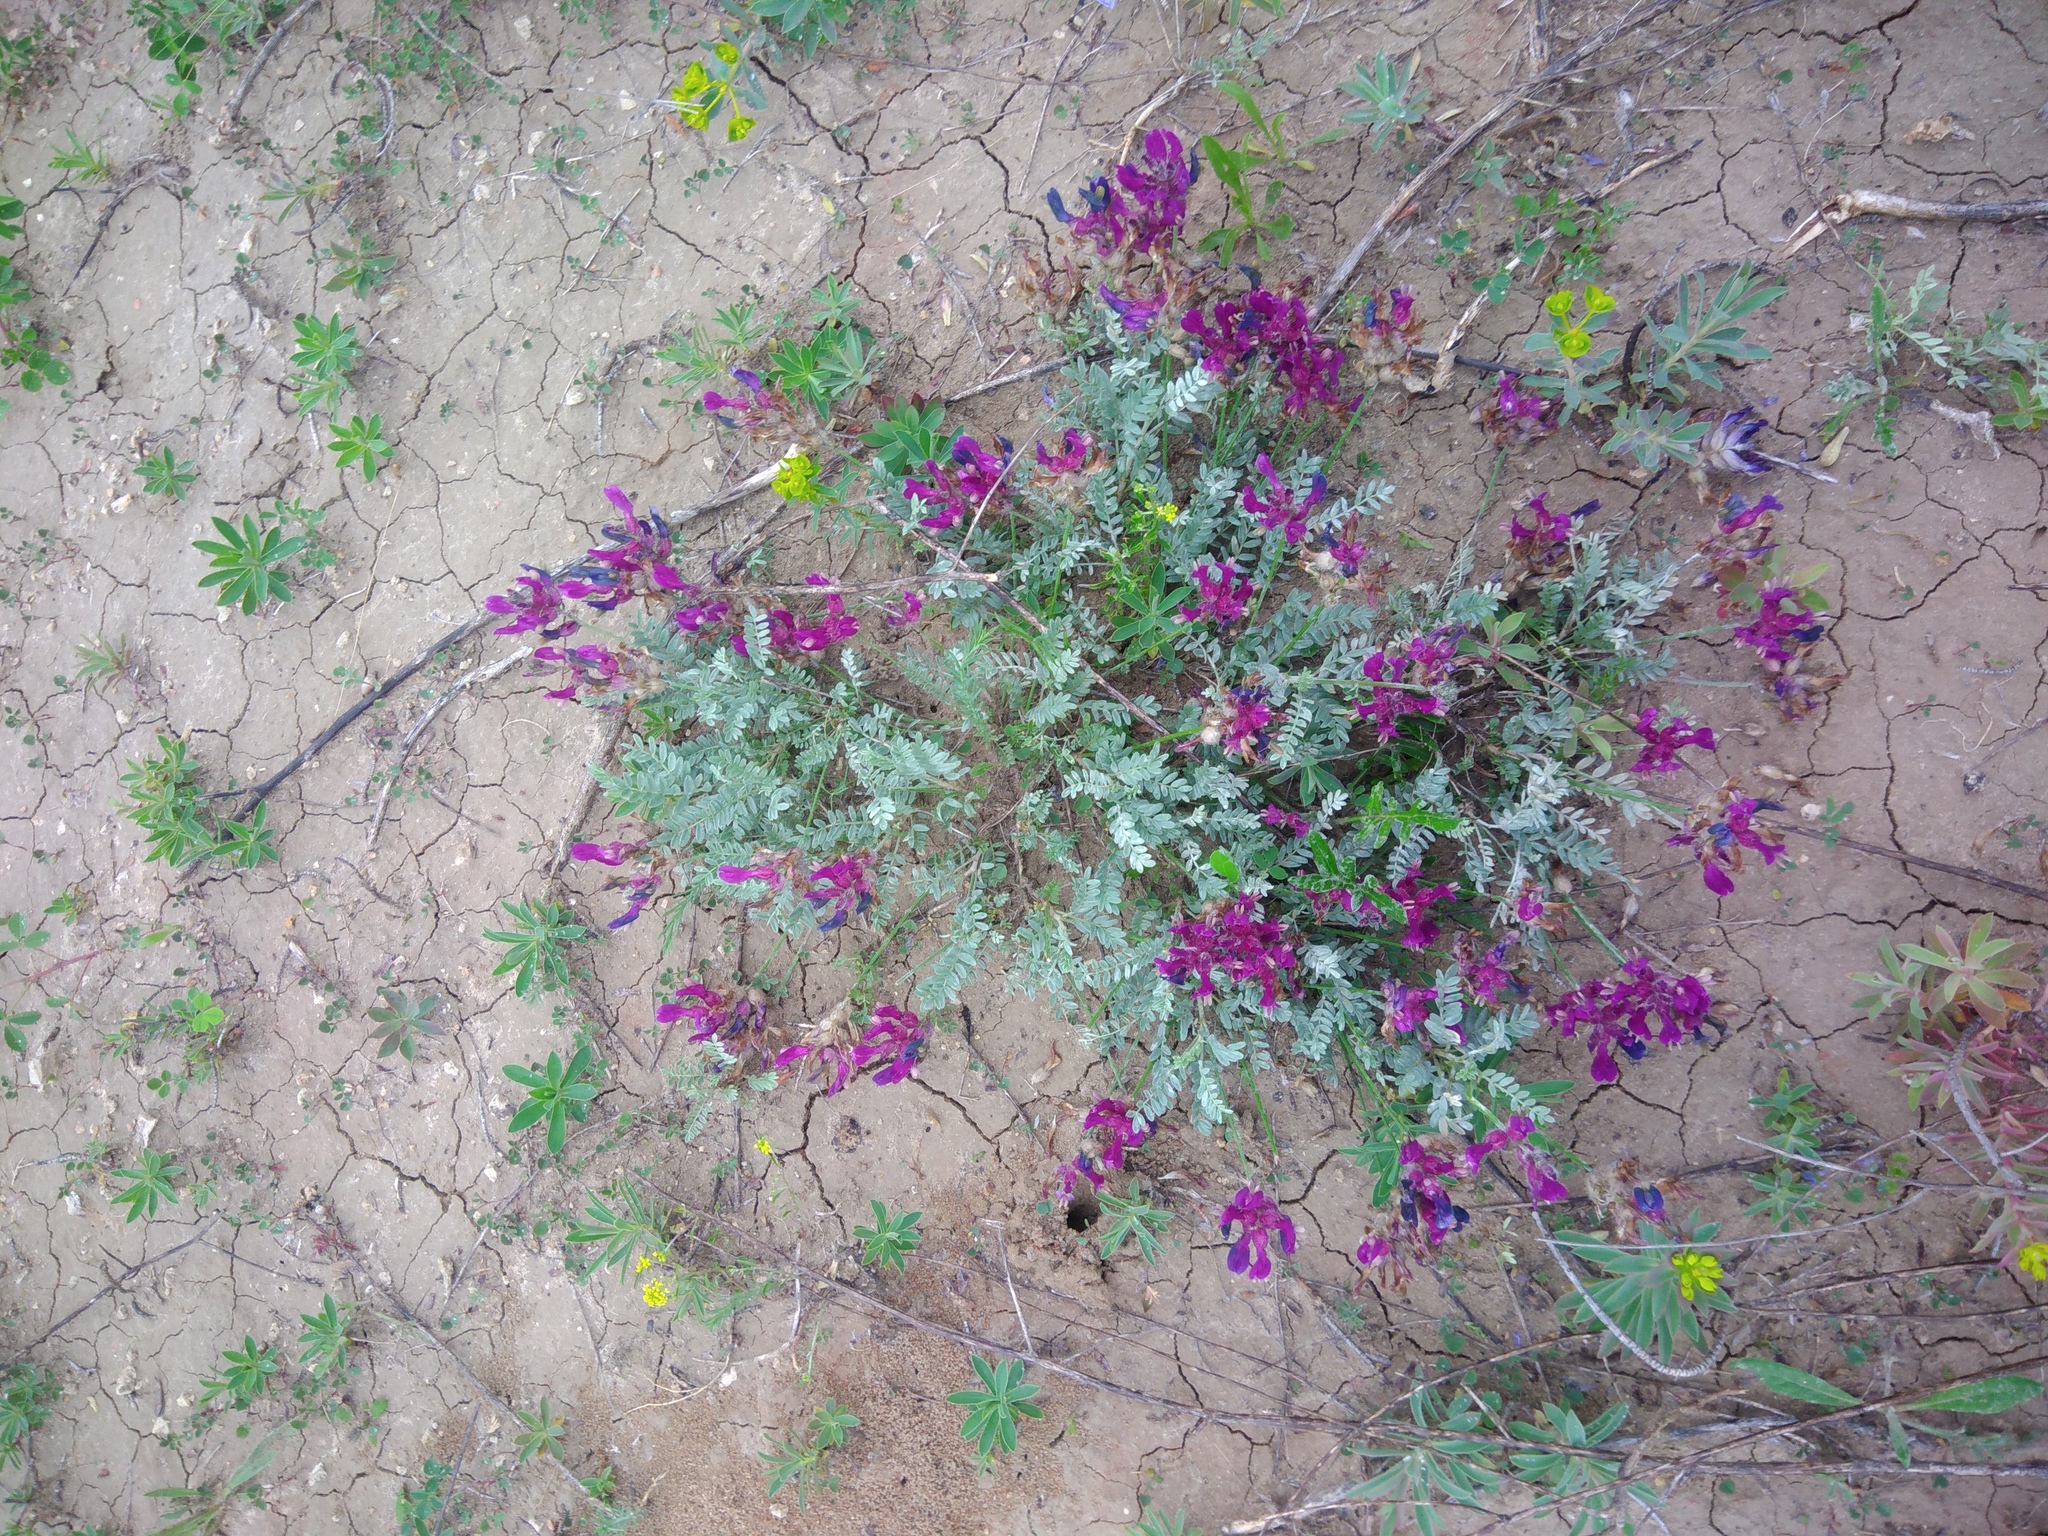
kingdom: Plantae
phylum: Tracheophyta
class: Magnoliopsida
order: Fabales
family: Fabaceae
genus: Astragalus
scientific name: Astragalus vesicarius
